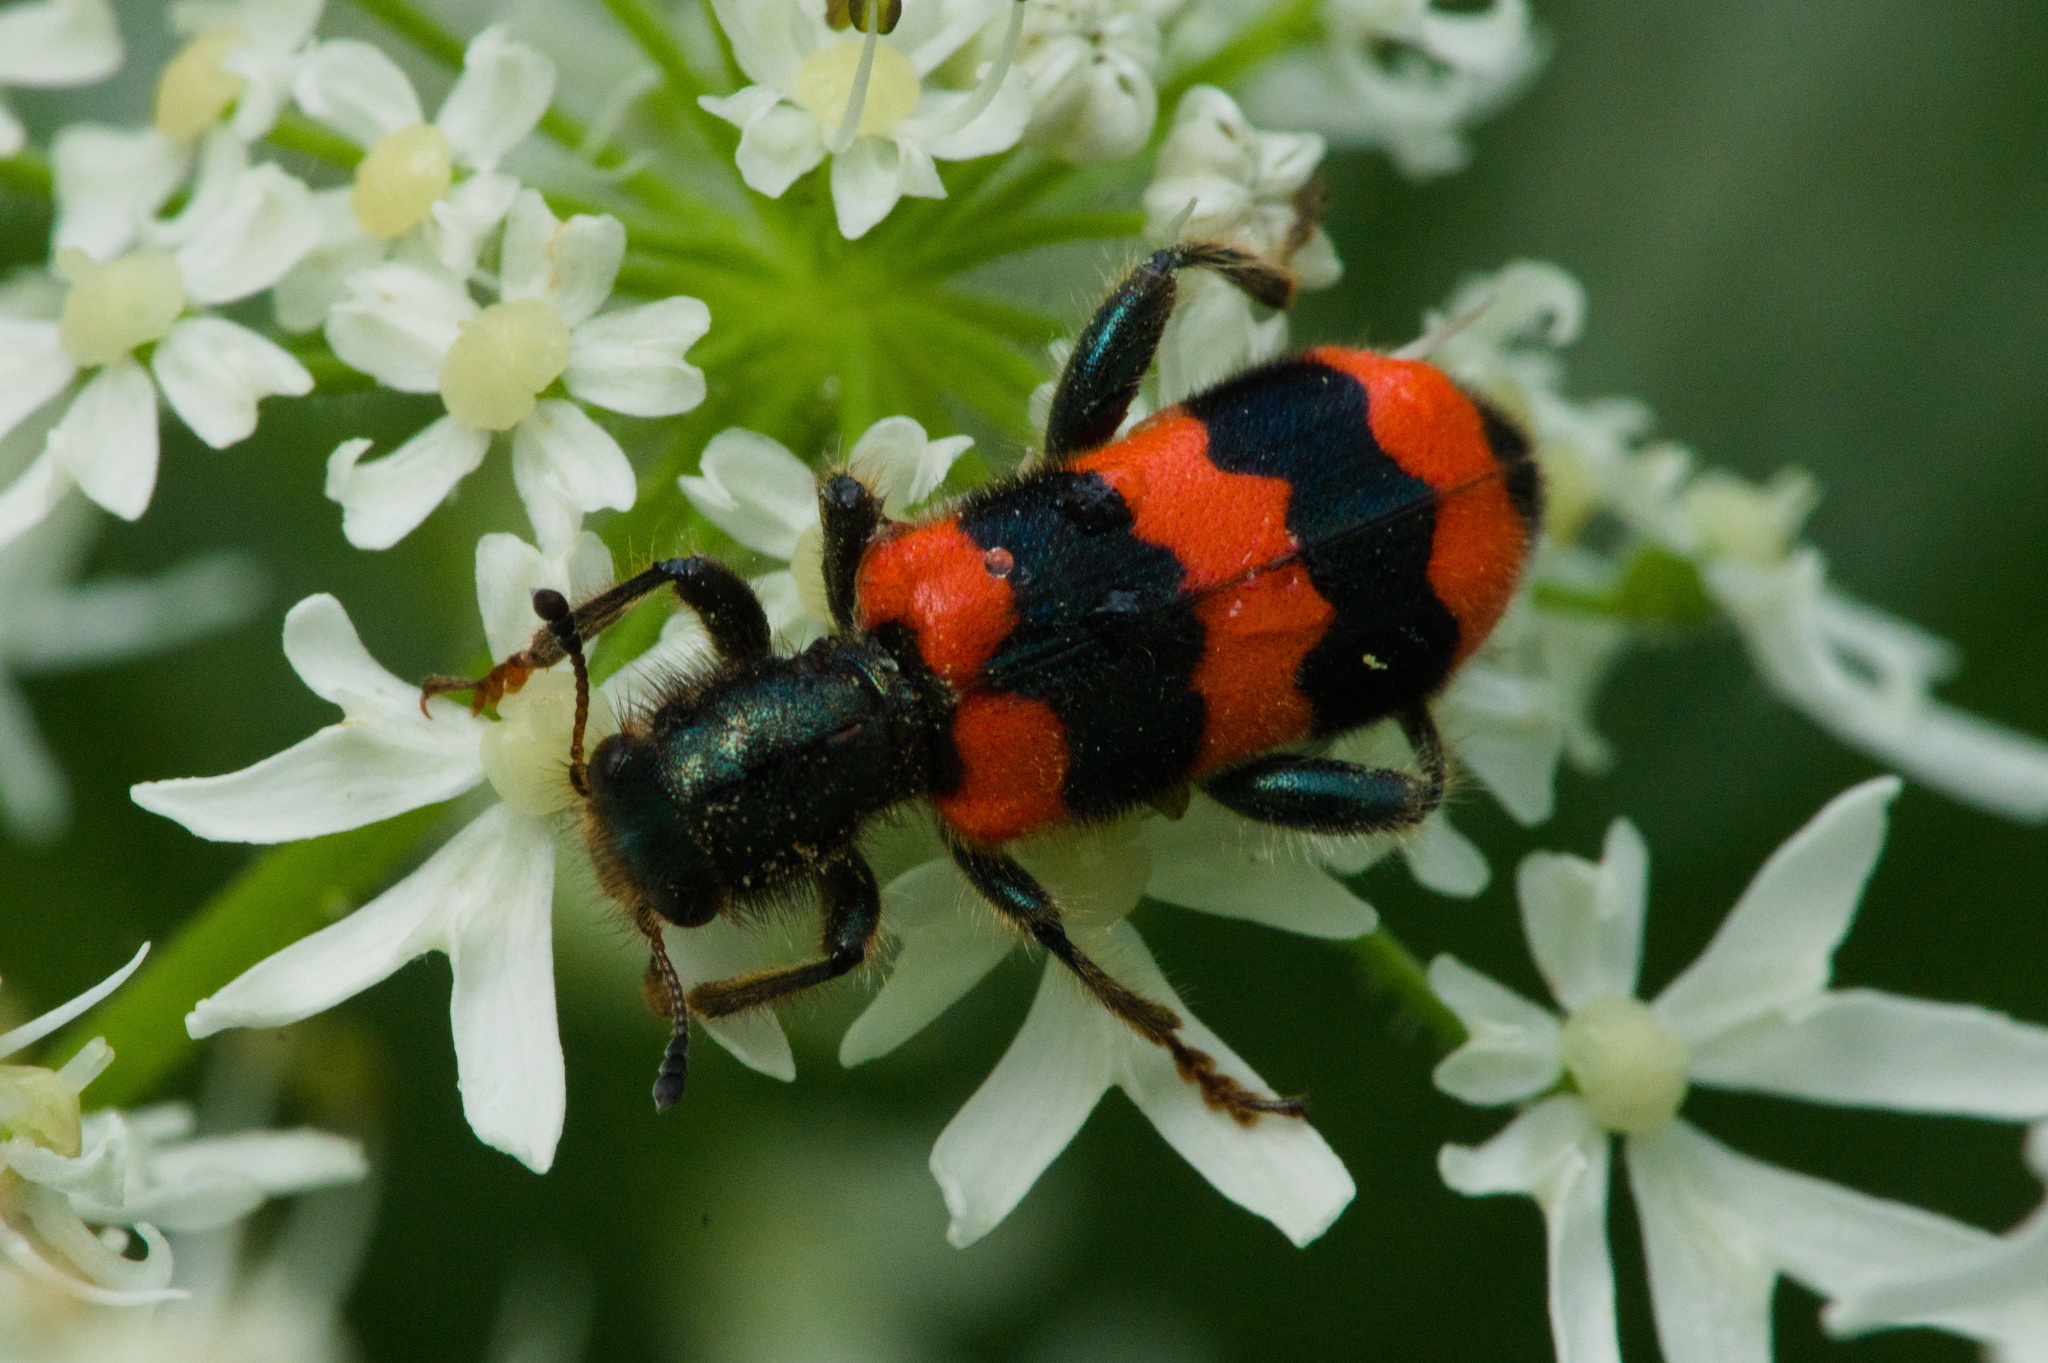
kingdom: Animalia
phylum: Arthropoda
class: Insecta
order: Coleoptera
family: Cleridae
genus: Trichodes
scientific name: Trichodes apiarius
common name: Bee-eating beetle
